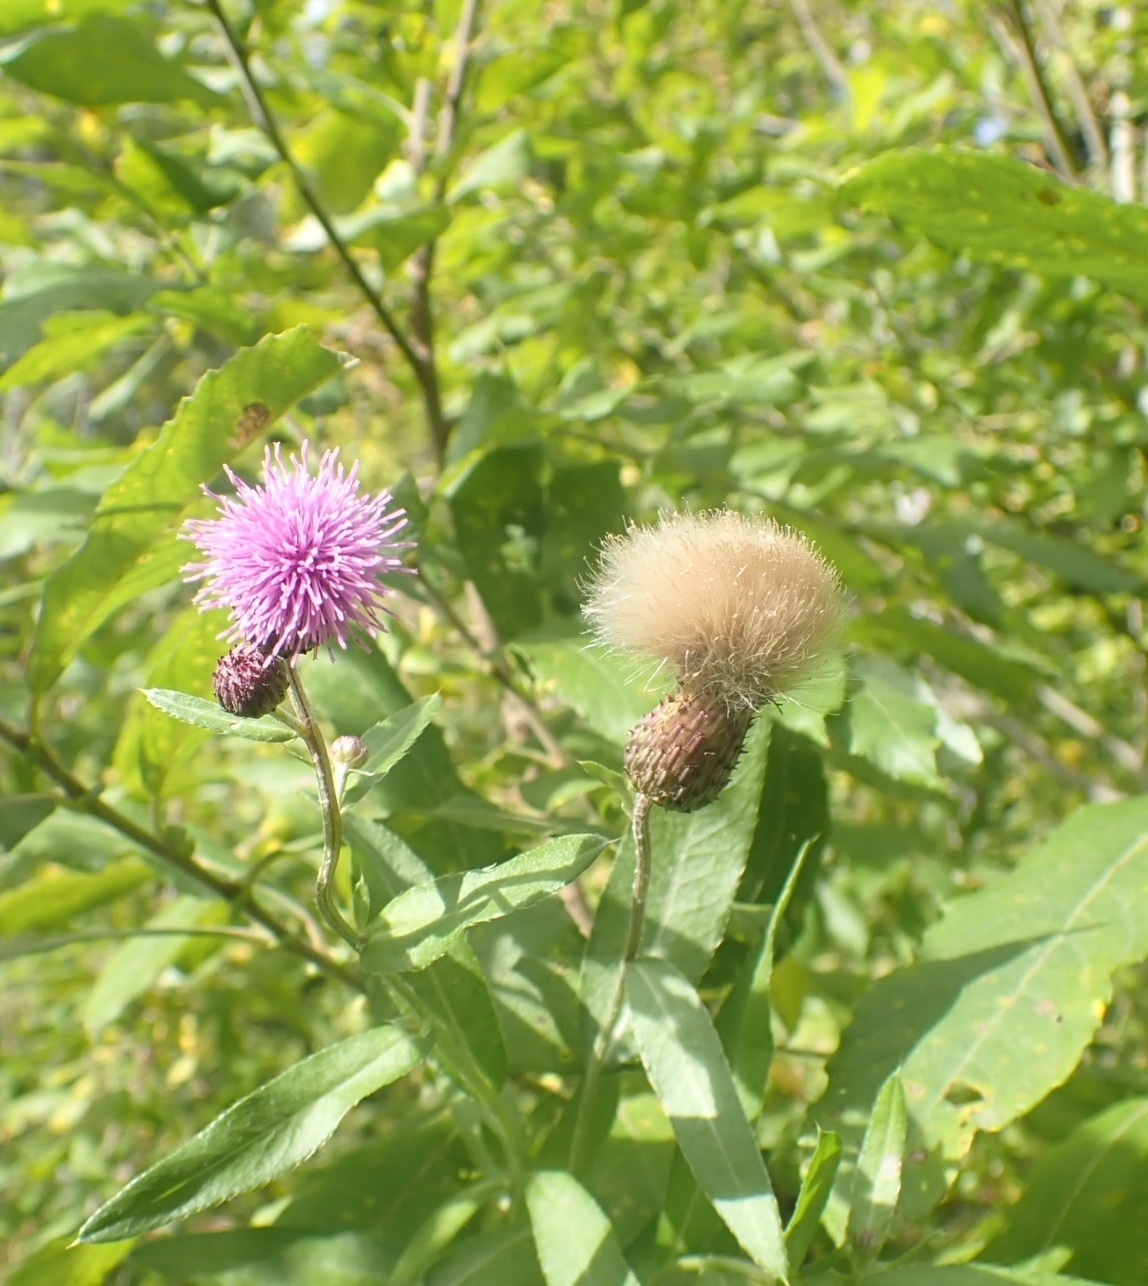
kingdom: Plantae
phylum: Tracheophyta
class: Magnoliopsida
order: Asterales
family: Asteraceae
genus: Cirsium
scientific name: Cirsium arvense
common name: Creeping thistle
